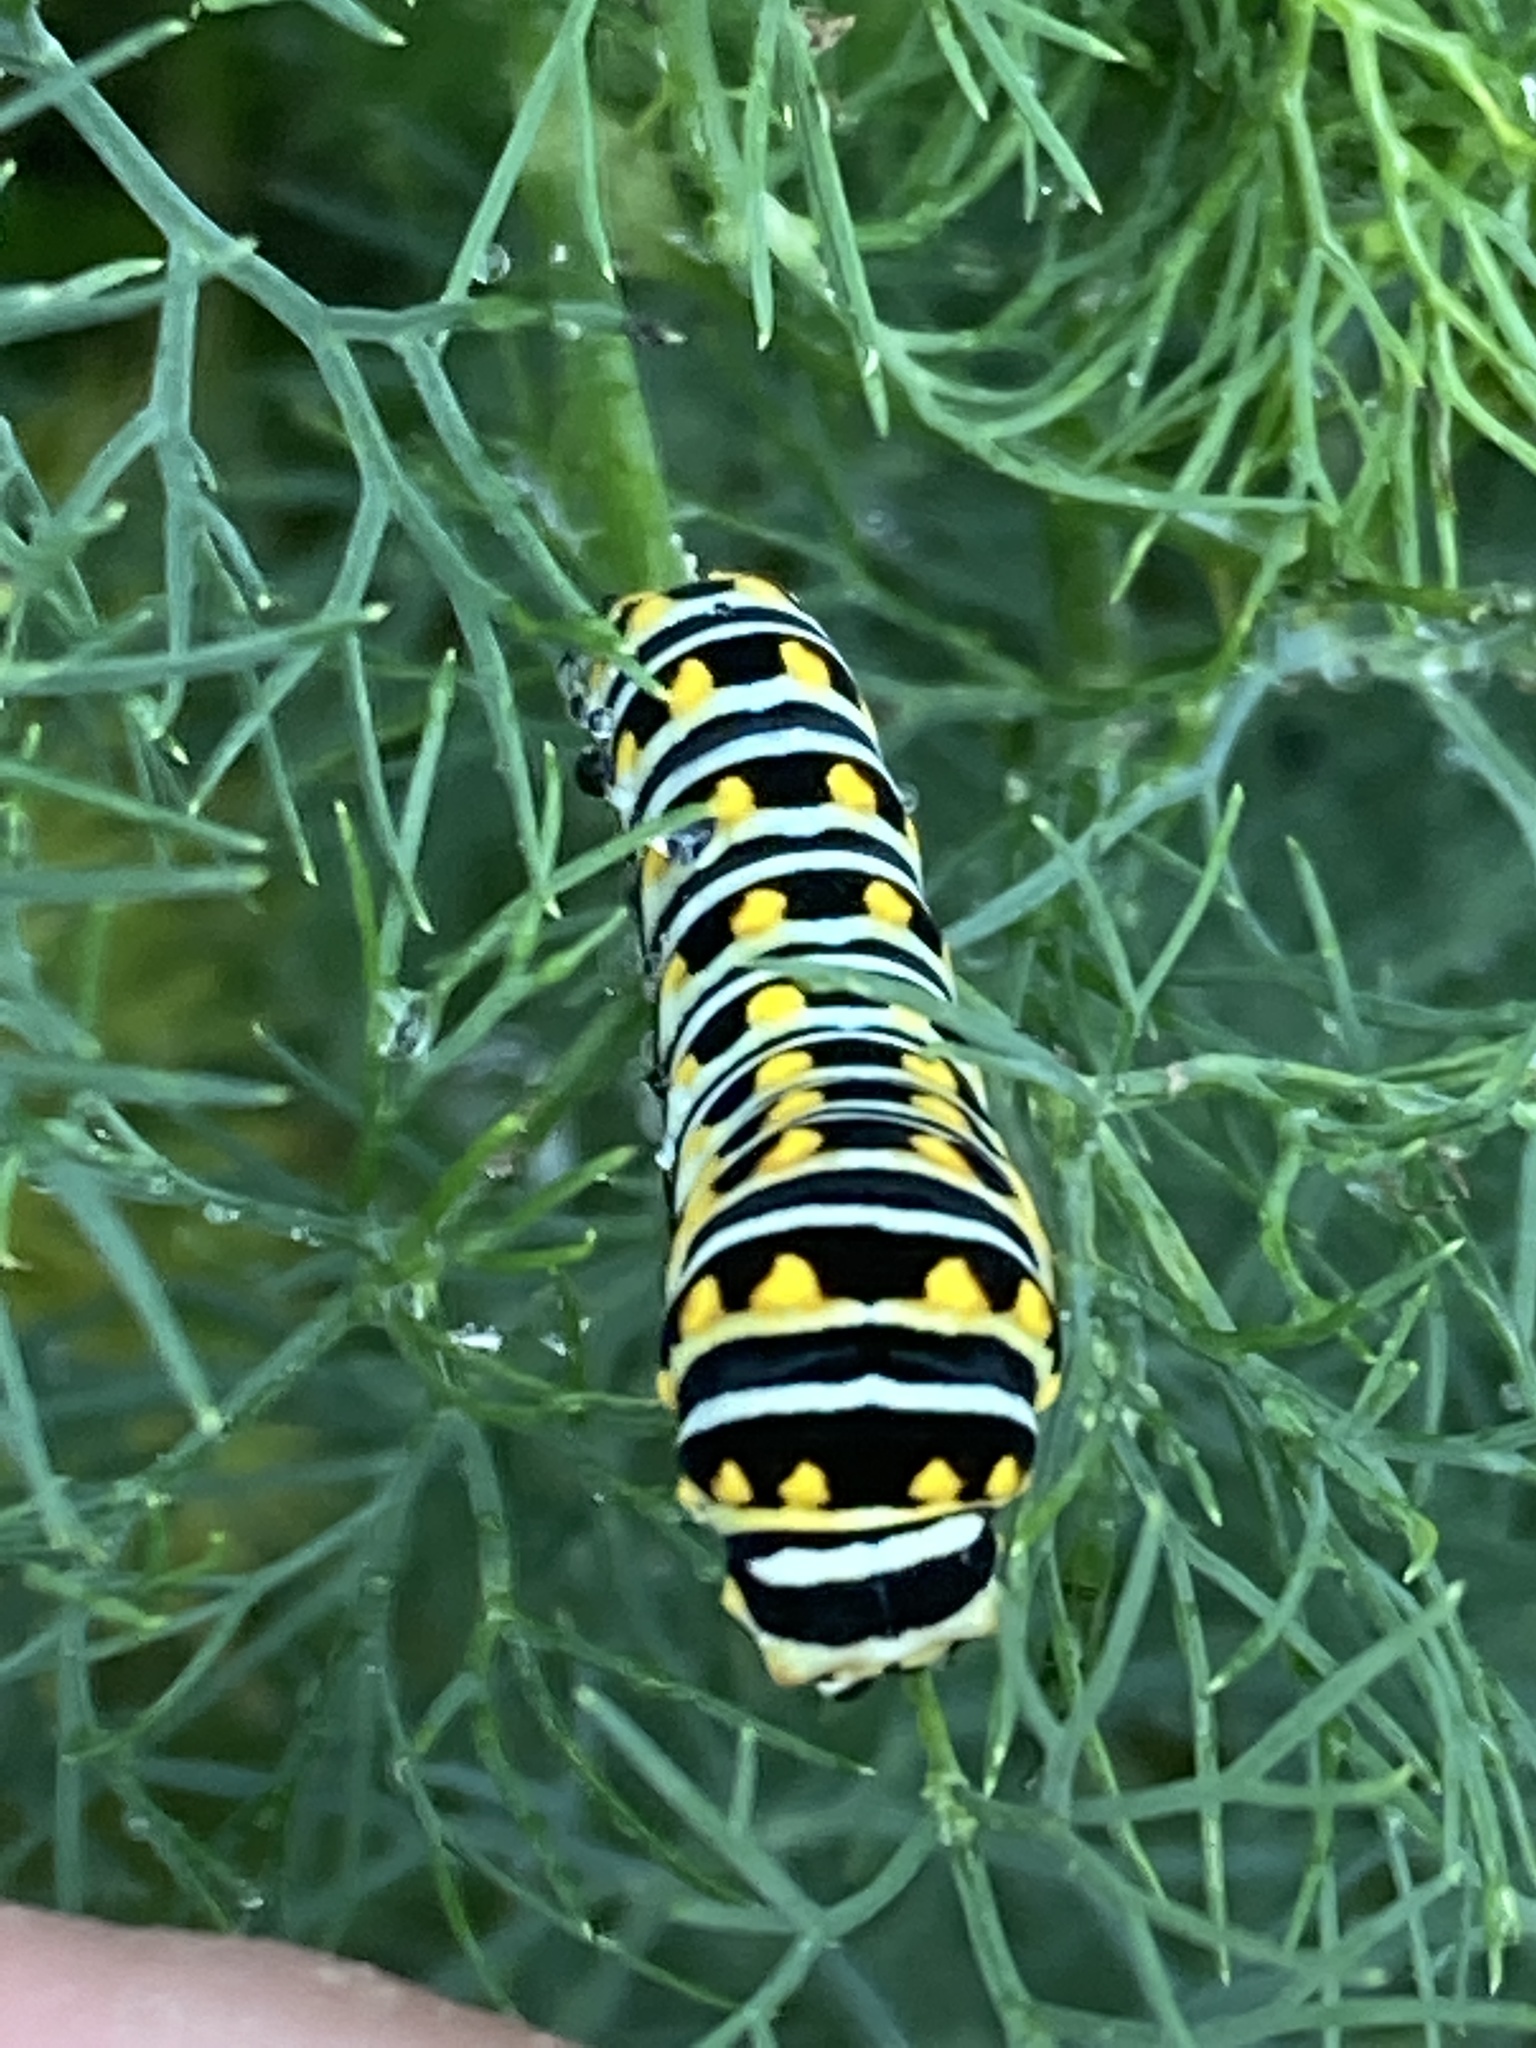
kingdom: Animalia
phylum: Arthropoda
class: Insecta
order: Lepidoptera
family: Papilionidae
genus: Papilio
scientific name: Papilio polyxenes
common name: Black swallowtail
